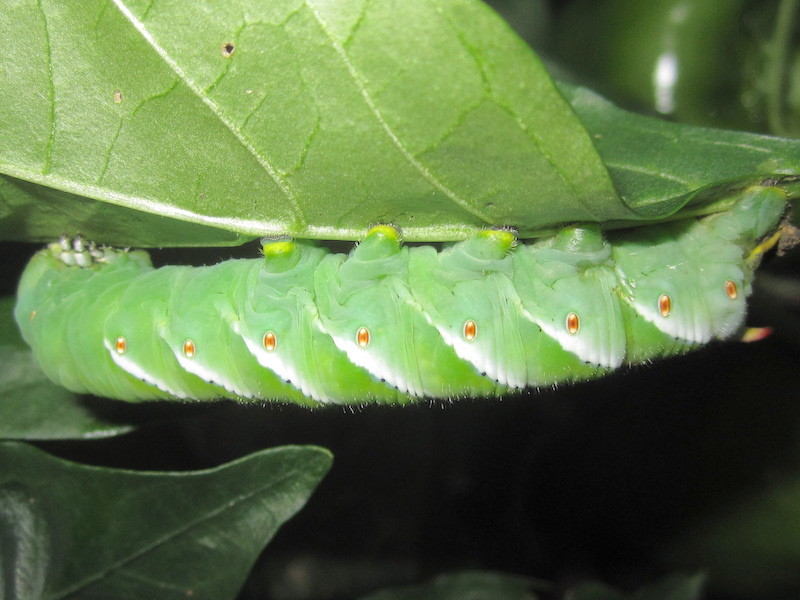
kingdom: Animalia
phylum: Arthropoda
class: Insecta
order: Lepidoptera
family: Sphingidae
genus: Manduca
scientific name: Manduca sexta
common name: Carolina sphinx
